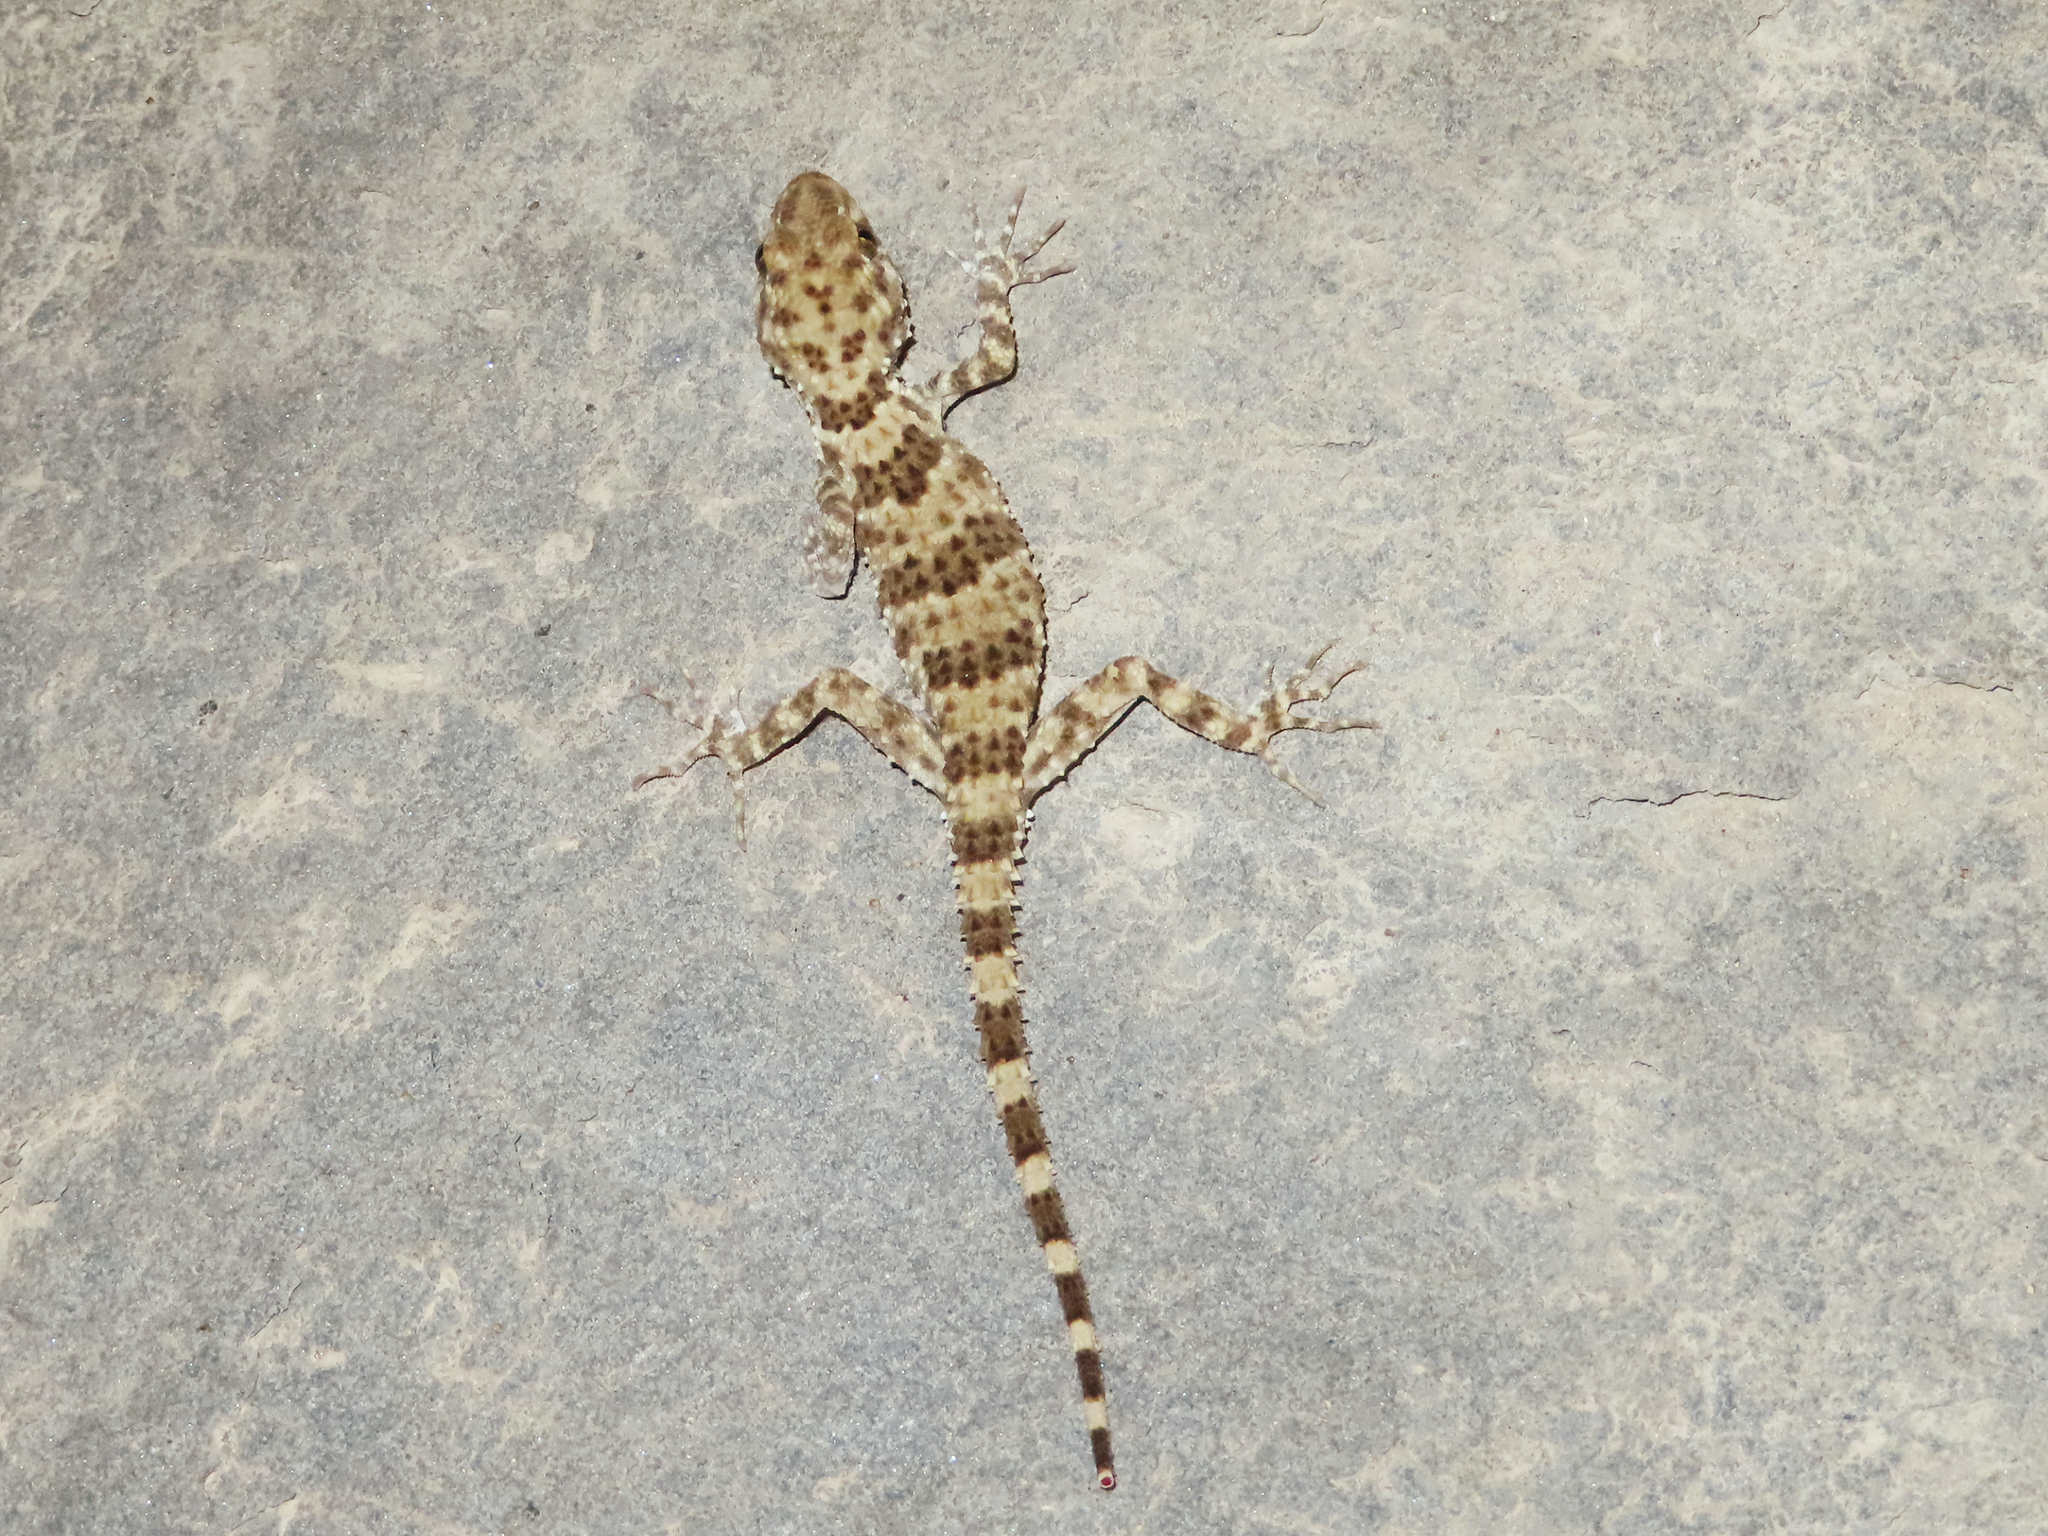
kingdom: Animalia
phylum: Chordata
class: Squamata
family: Gekkonidae
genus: Tenuidactylus
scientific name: Tenuidactylus caspius
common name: Caspian bent-toed gecko
